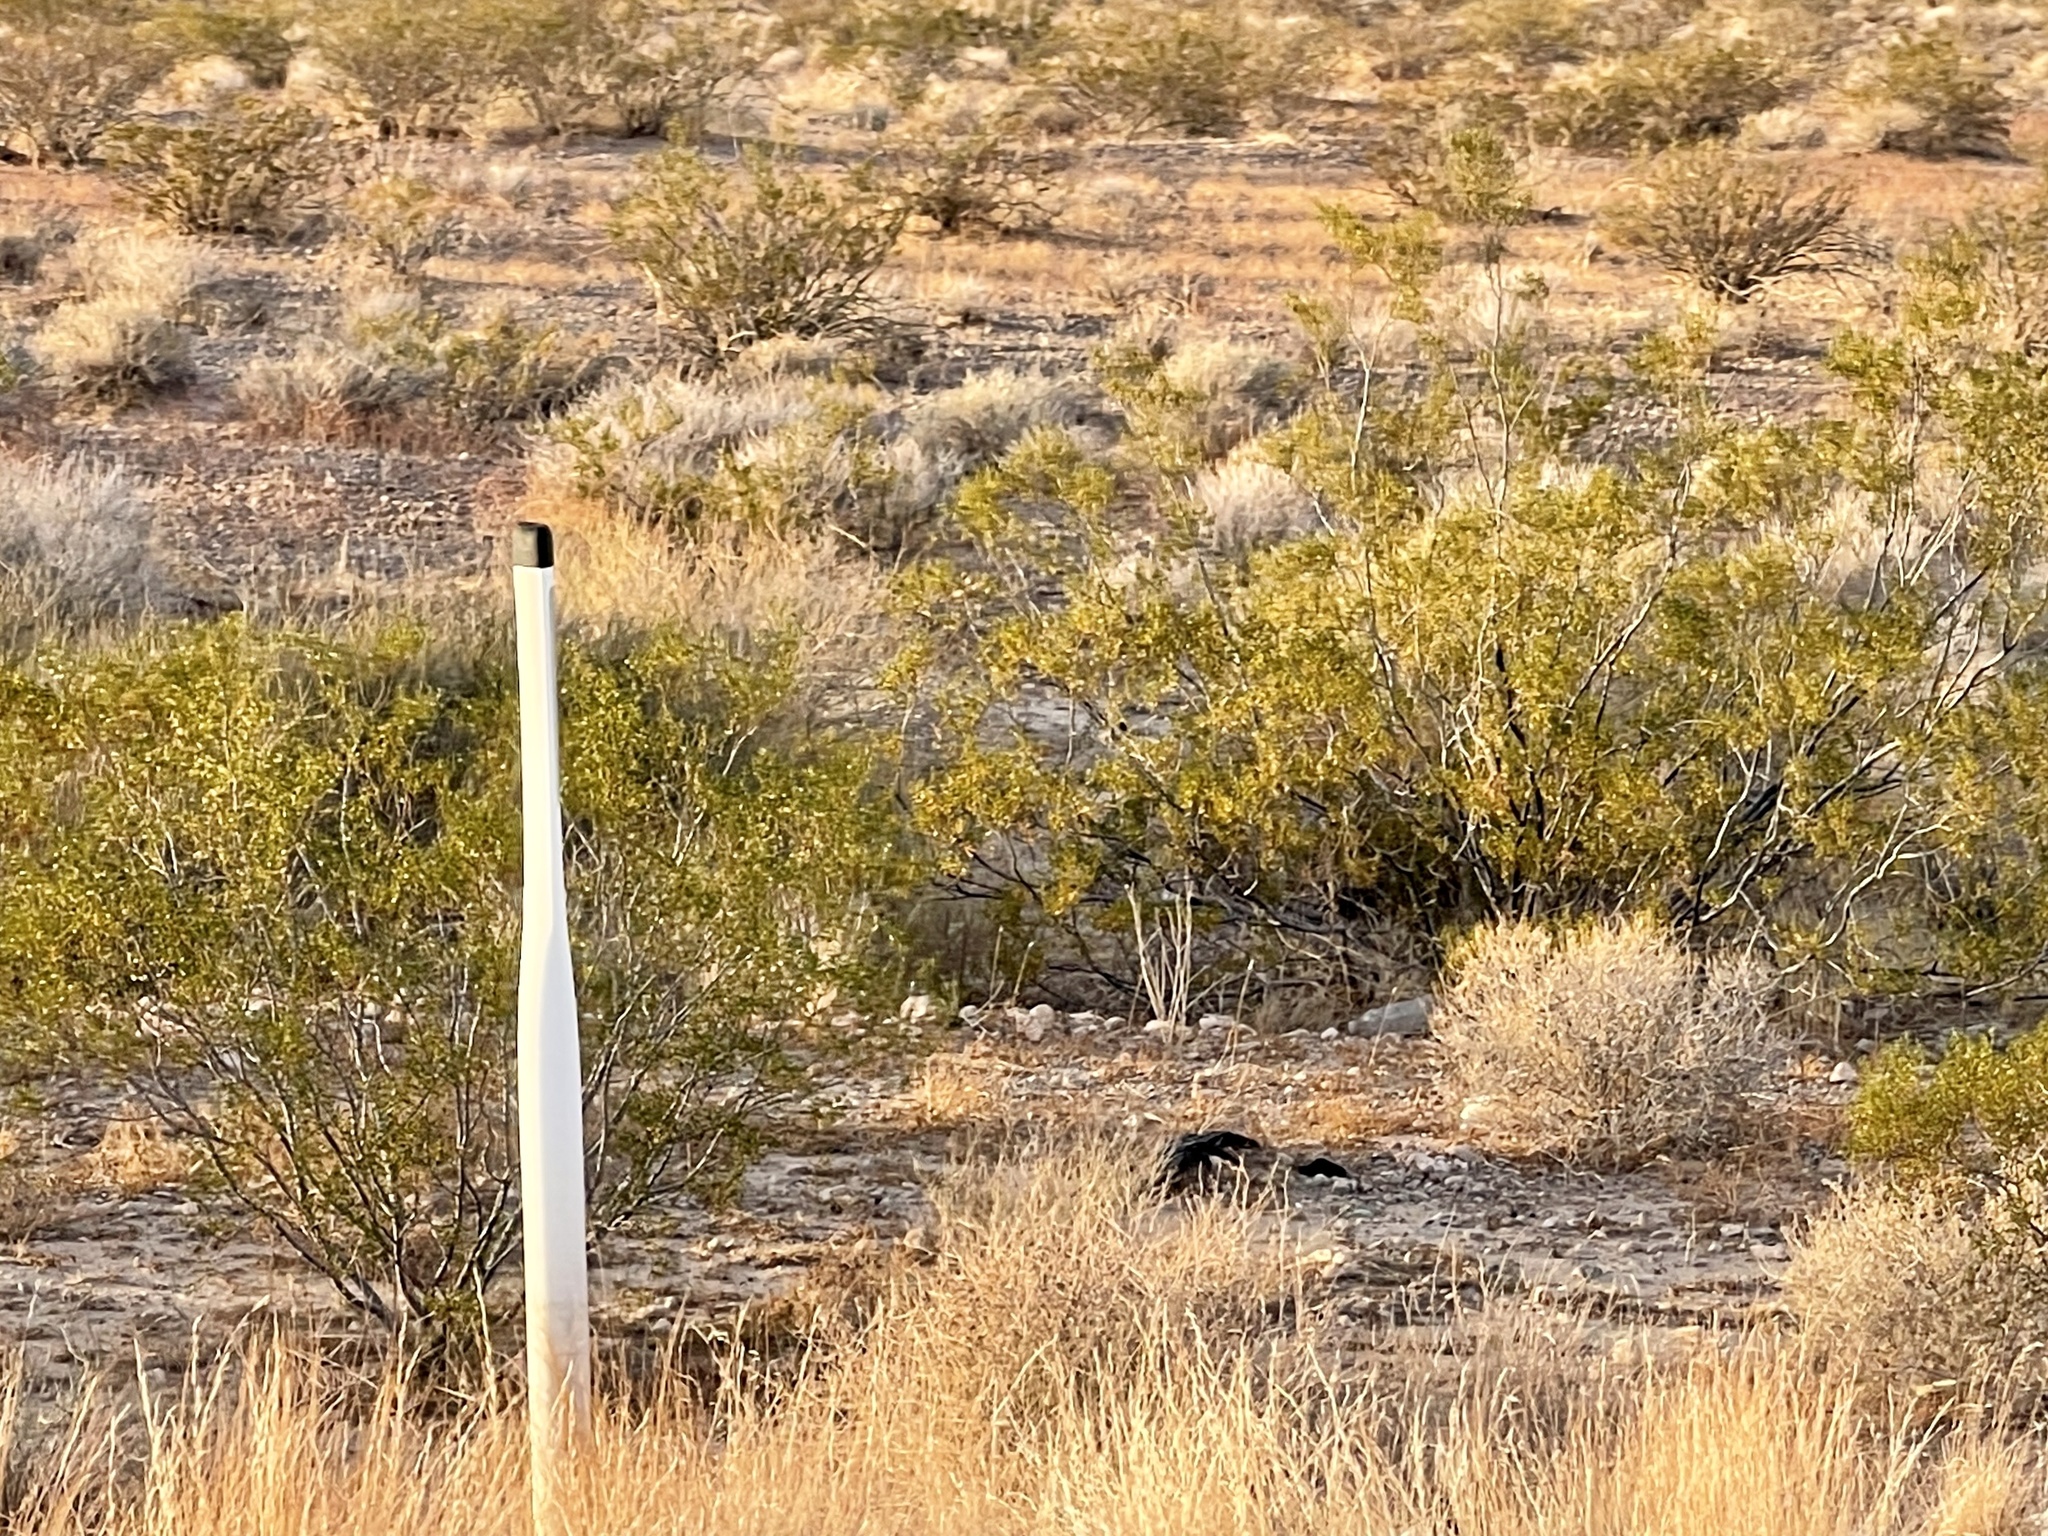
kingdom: Plantae
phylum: Tracheophyta
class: Magnoliopsida
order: Zygophyllales
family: Zygophyllaceae
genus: Larrea
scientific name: Larrea tridentata
